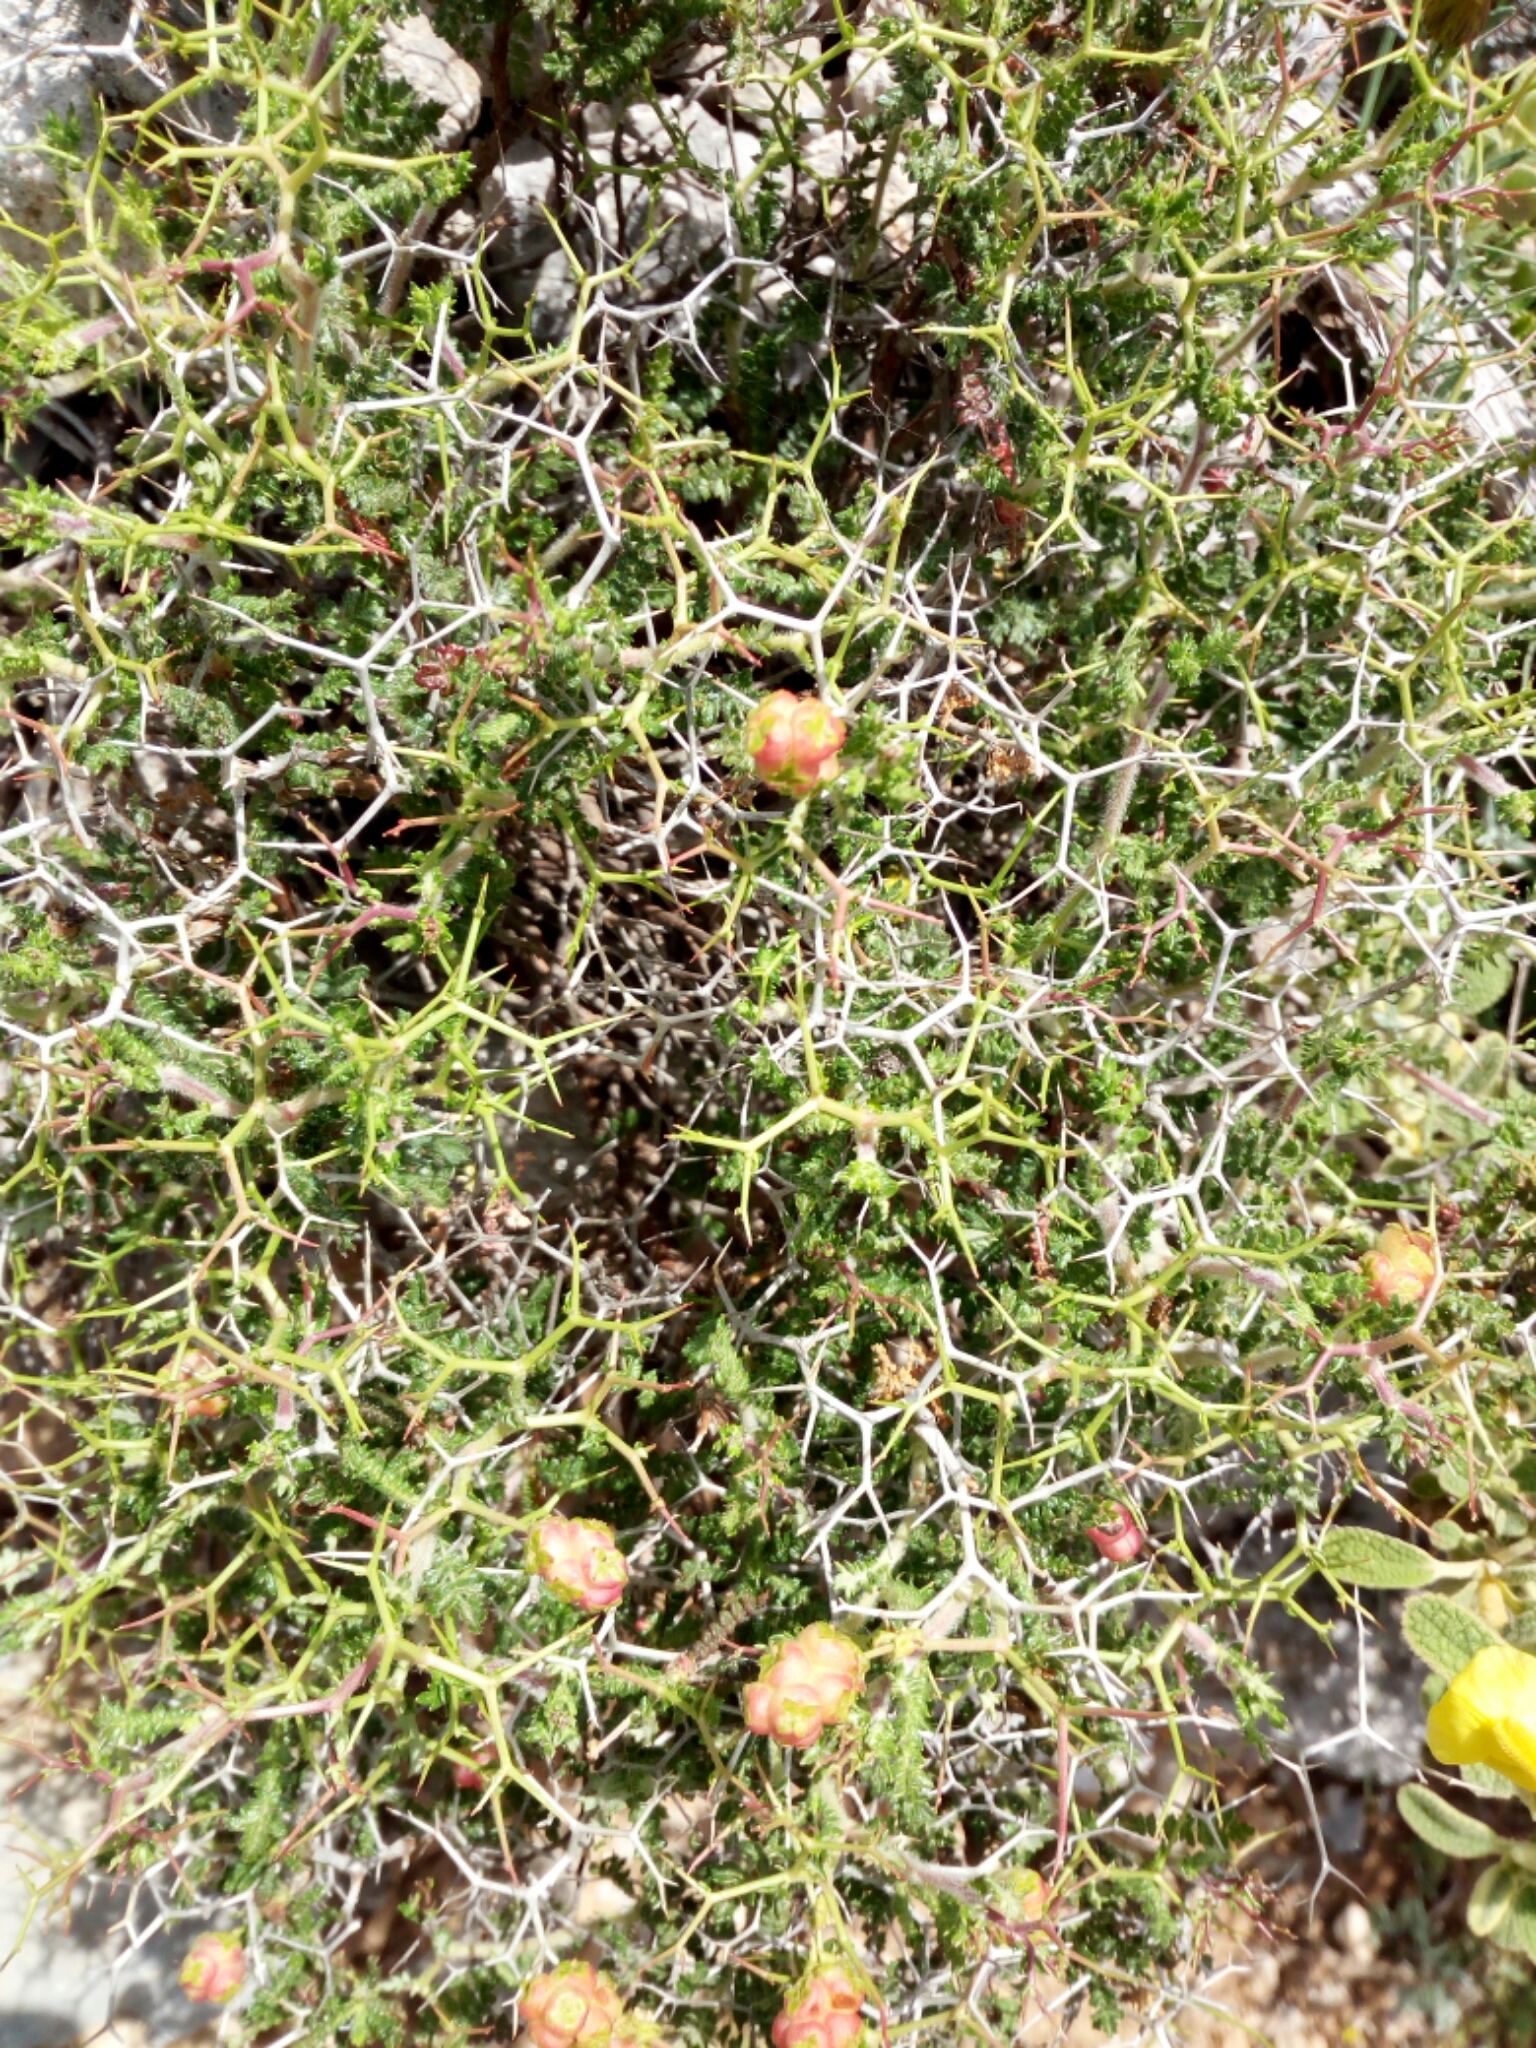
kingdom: Plantae
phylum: Tracheophyta
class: Magnoliopsida
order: Rosales
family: Rosaceae
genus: Sarcopoterium
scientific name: Sarcopoterium spinosum
